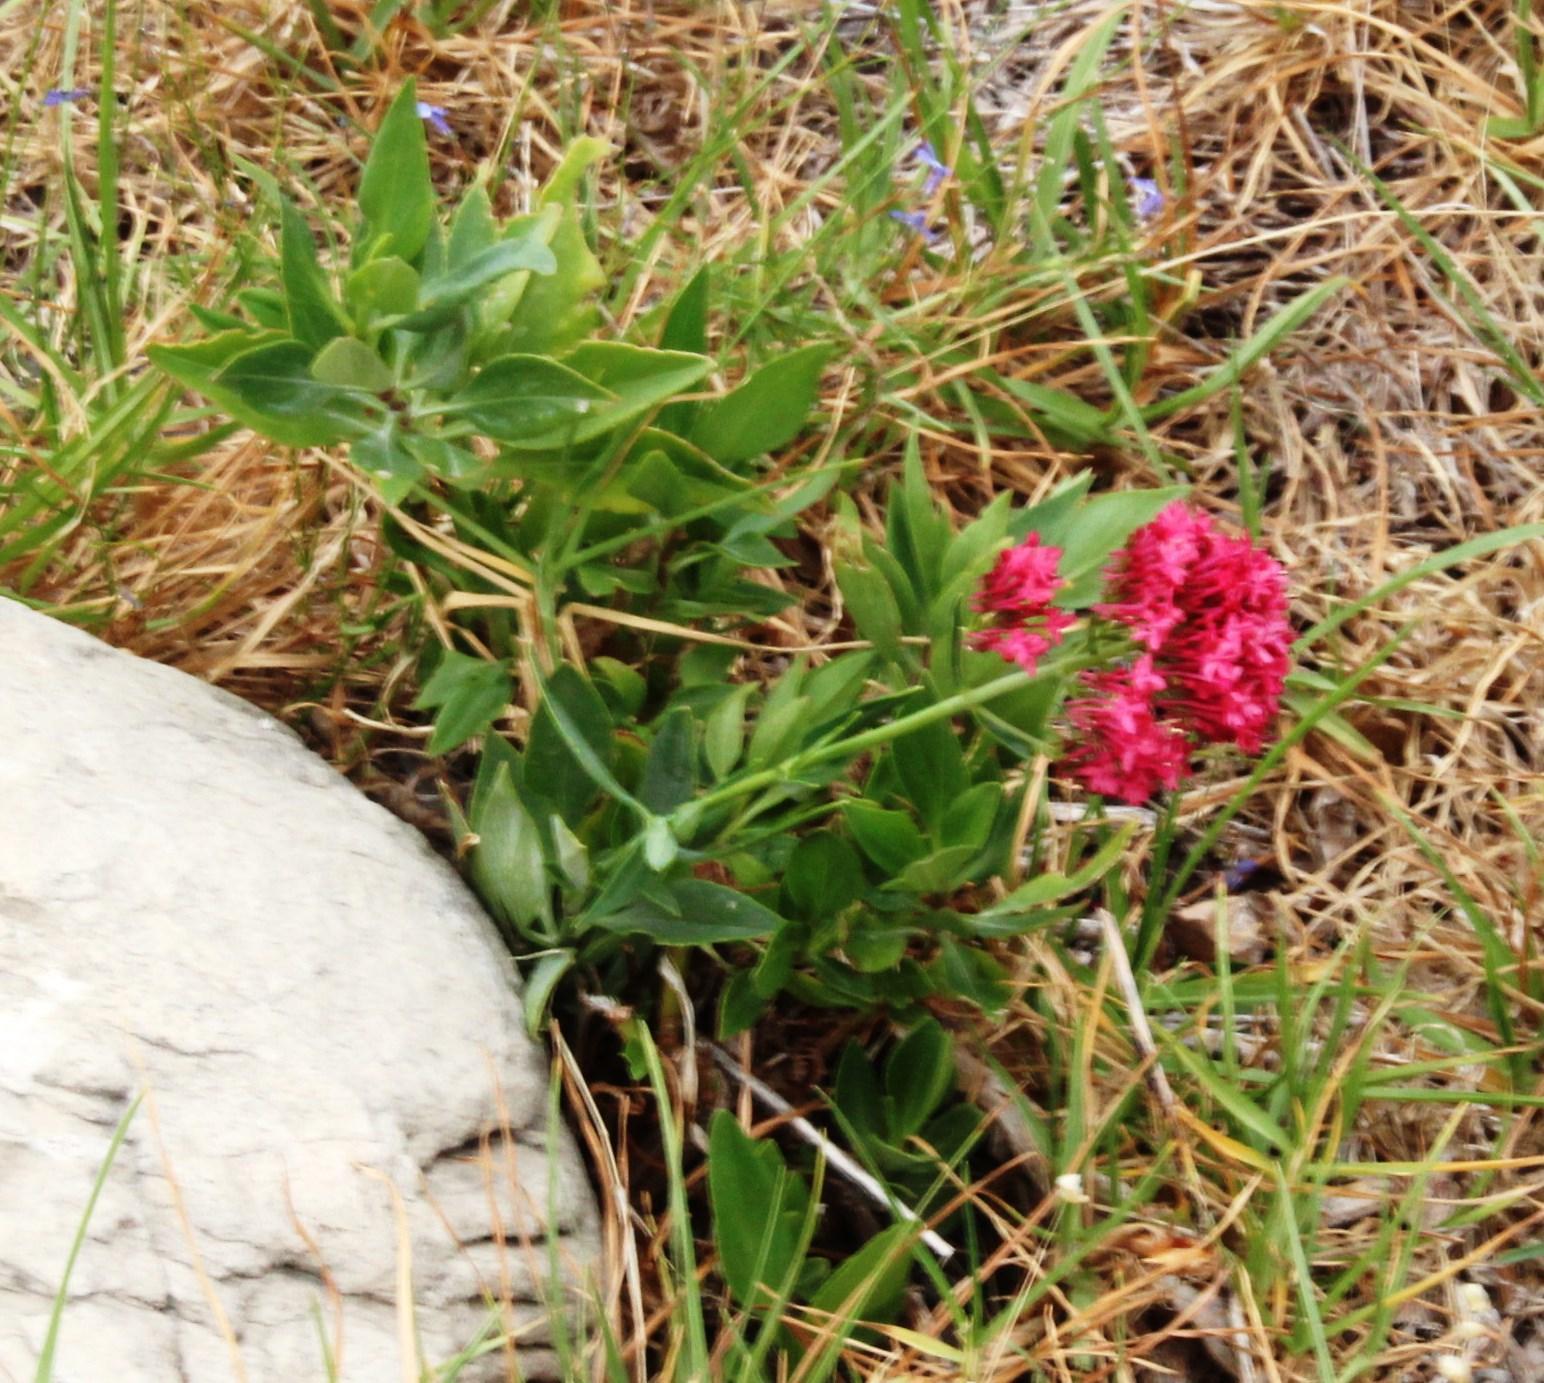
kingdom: Plantae
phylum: Tracheophyta
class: Magnoliopsida
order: Dipsacales
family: Caprifoliaceae
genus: Centranthus
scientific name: Centranthus ruber
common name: Red valerian
